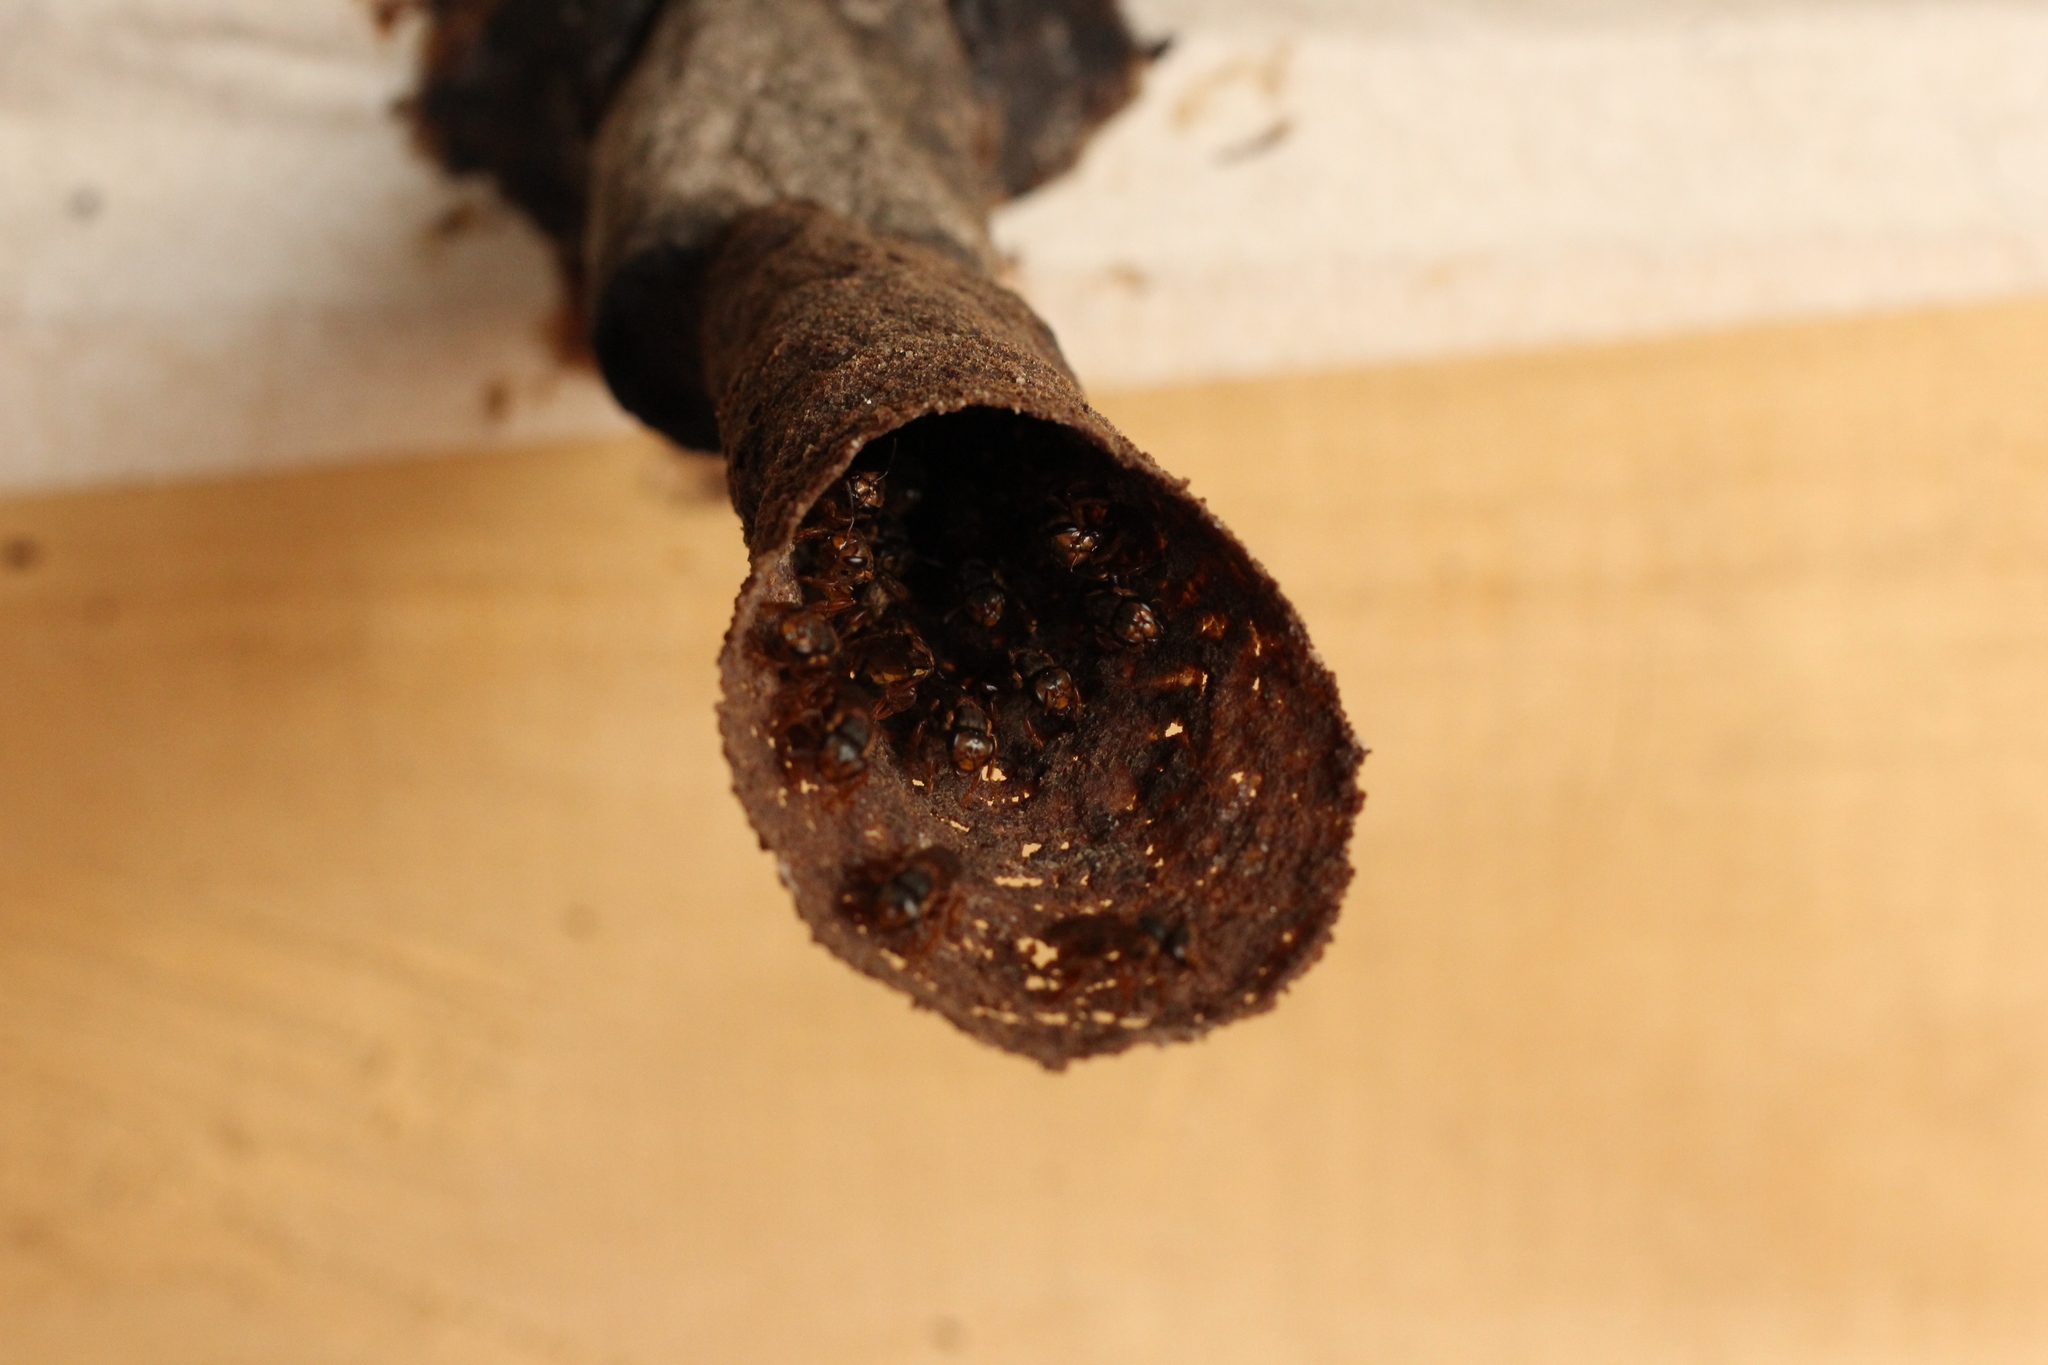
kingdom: Animalia
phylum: Arthropoda
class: Insecta
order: Hymenoptera
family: Apidae
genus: Scaptotrigona
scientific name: Scaptotrigona pectoralis
